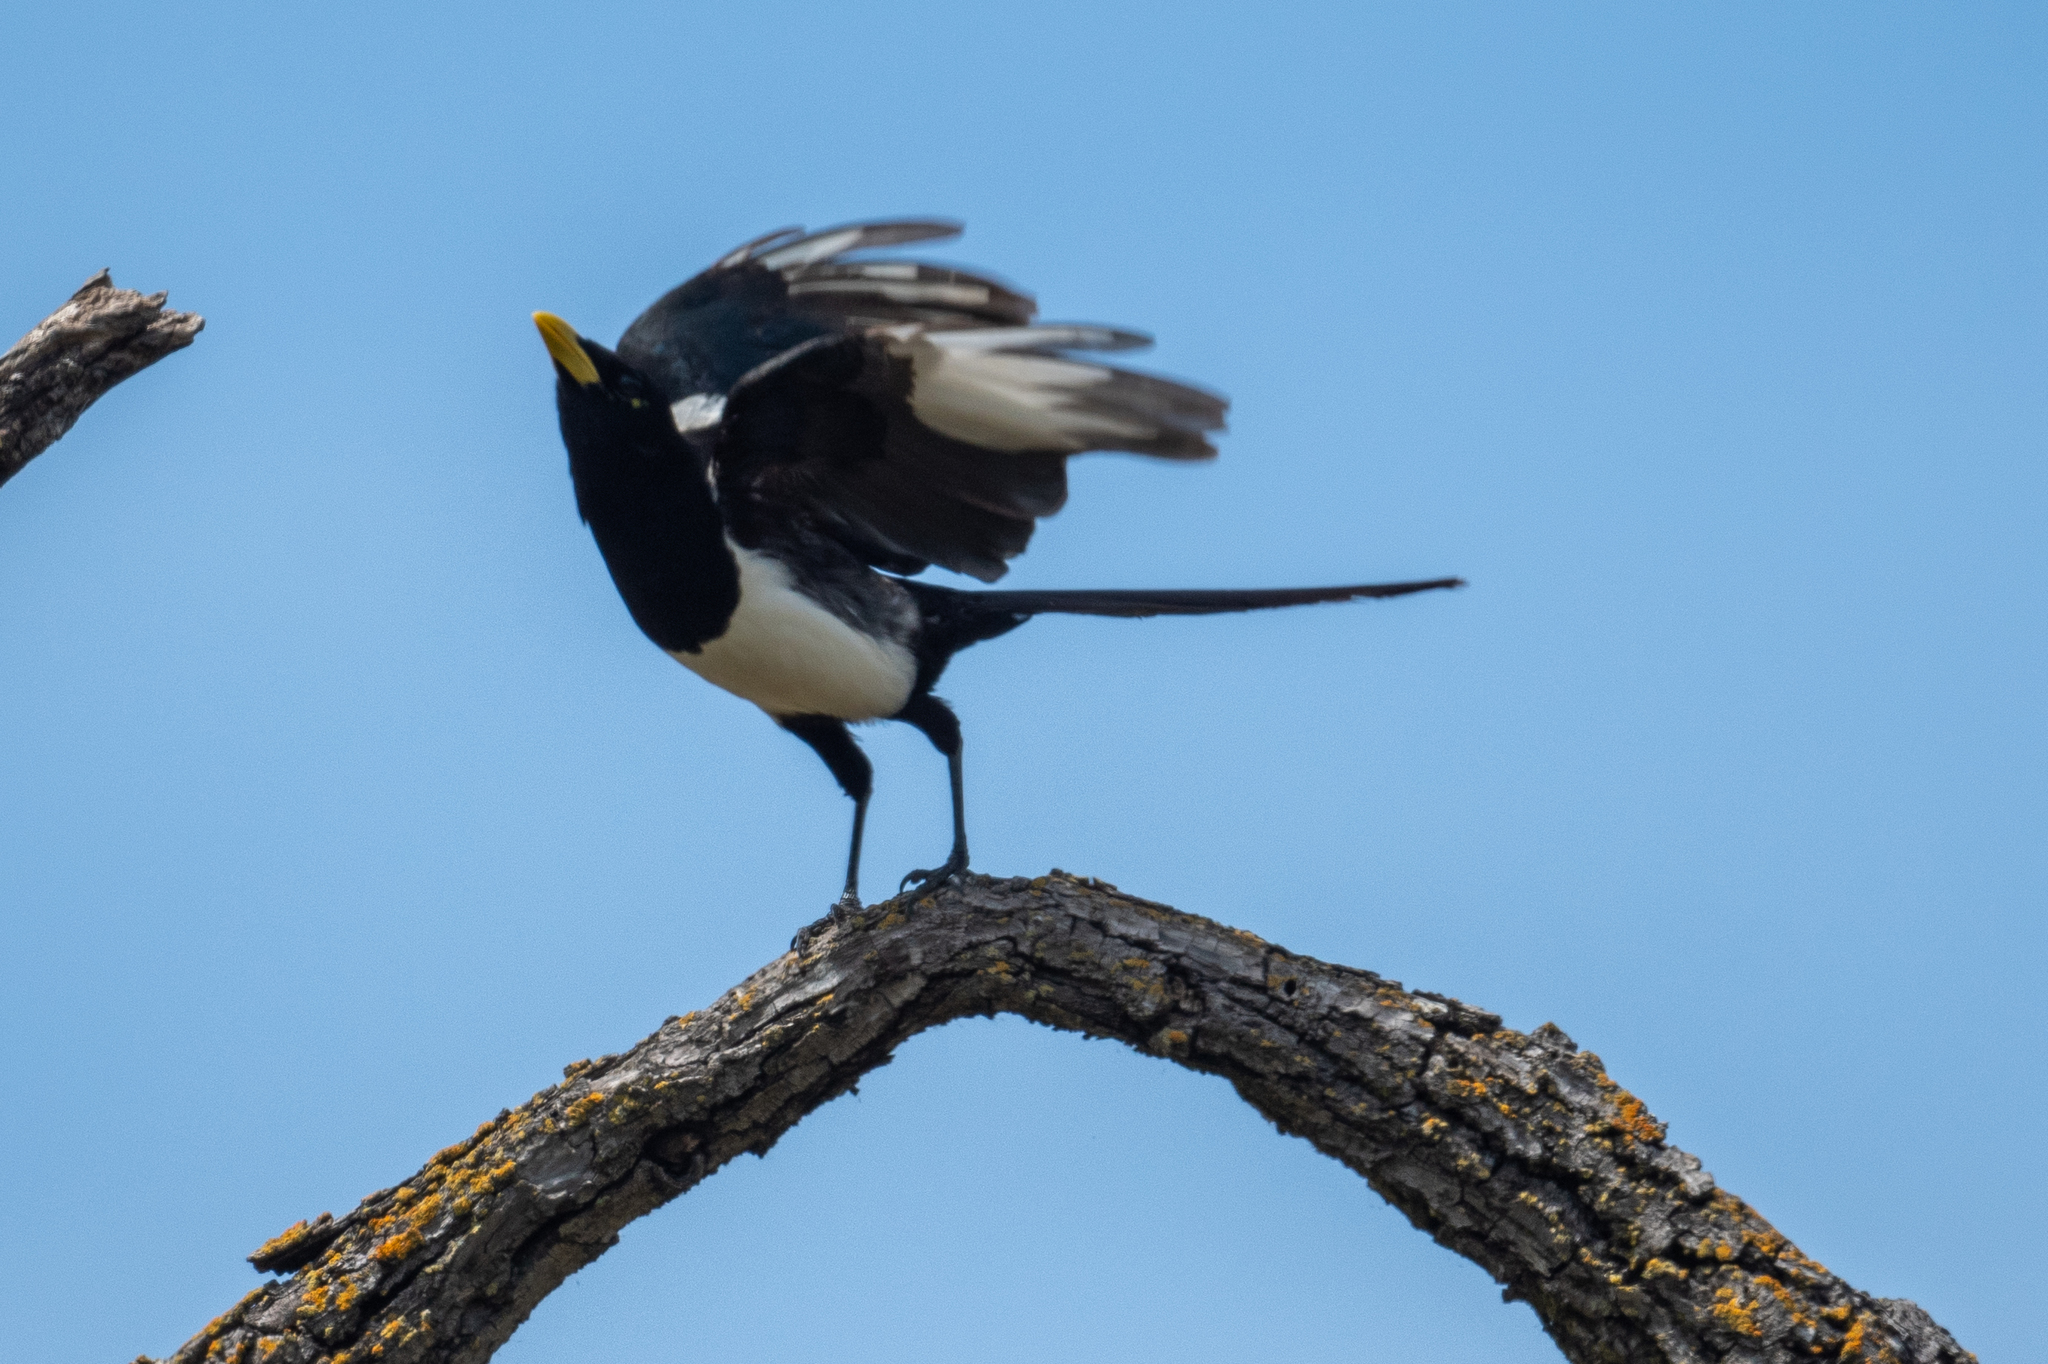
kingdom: Animalia
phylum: Chordata
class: Aves
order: Passeriformes
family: Corvidae
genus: Pica
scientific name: Pica nuttalli
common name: Yellow-billed magpie
